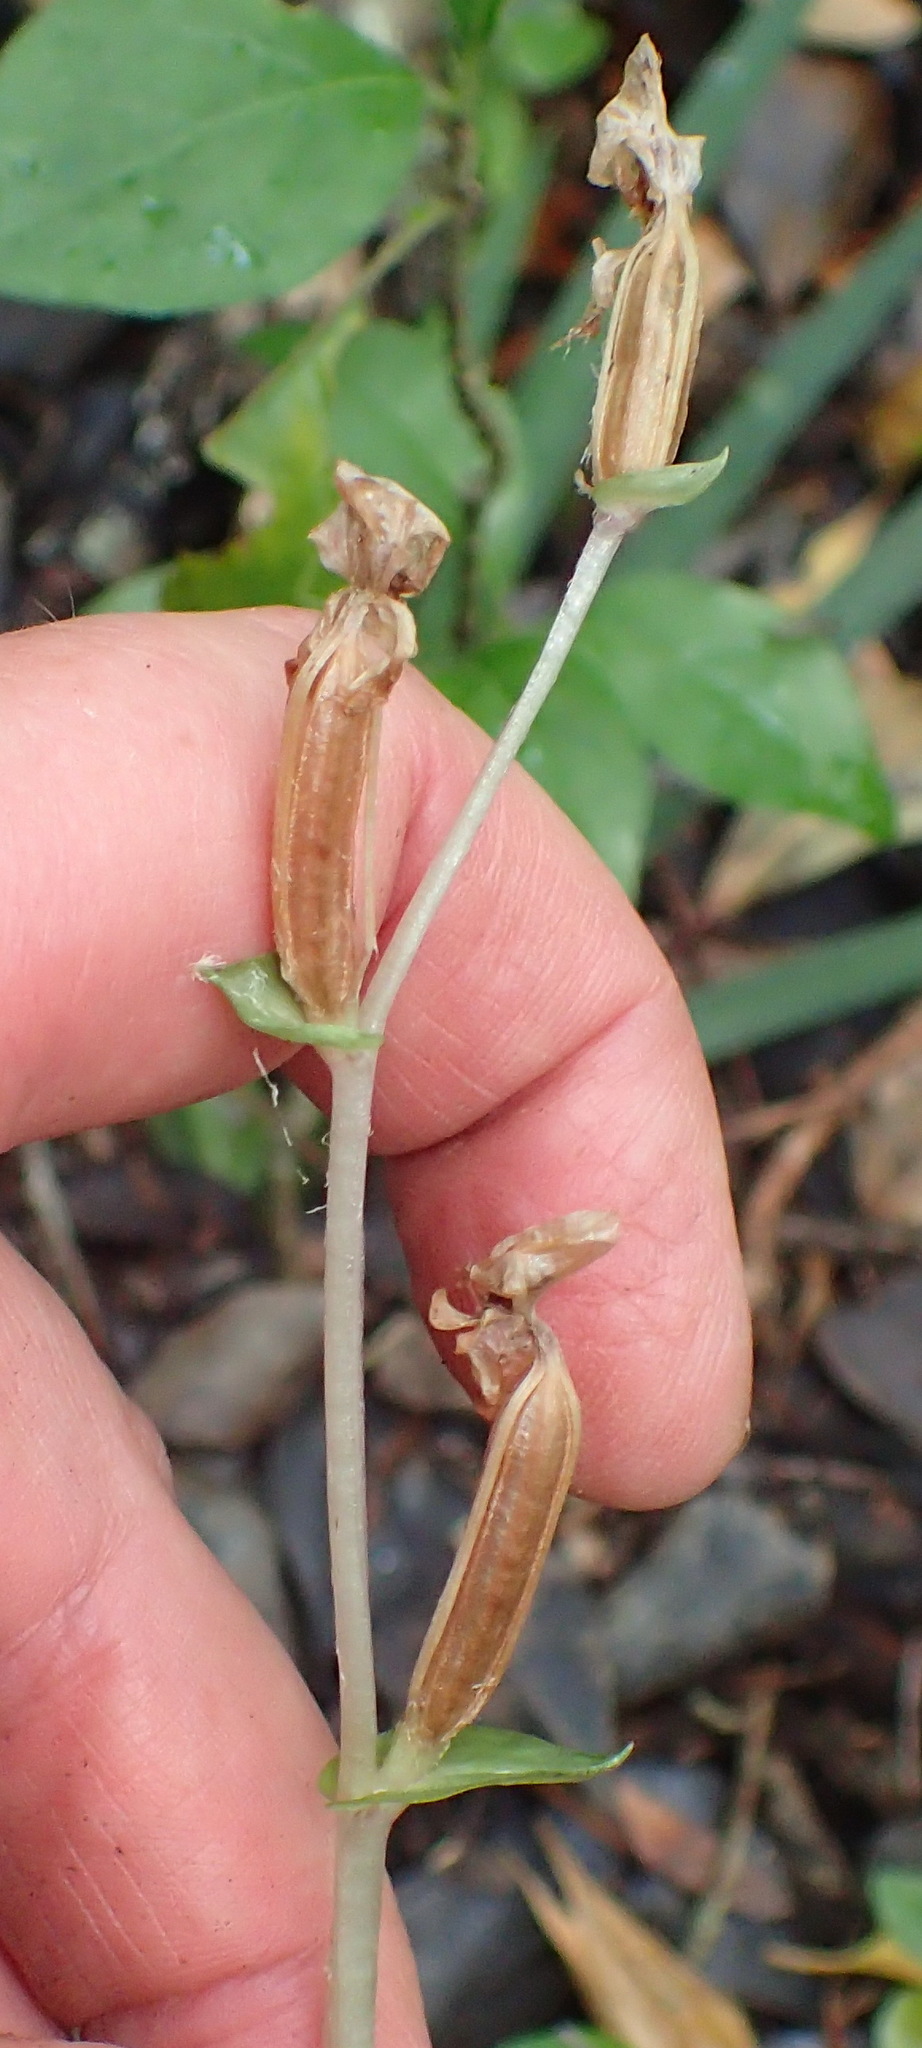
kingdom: Plantae
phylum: Tracheophyta
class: Liliopsida
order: Asparagales
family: Orchidaceae
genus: Disperis
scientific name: Disperis lindleyana
